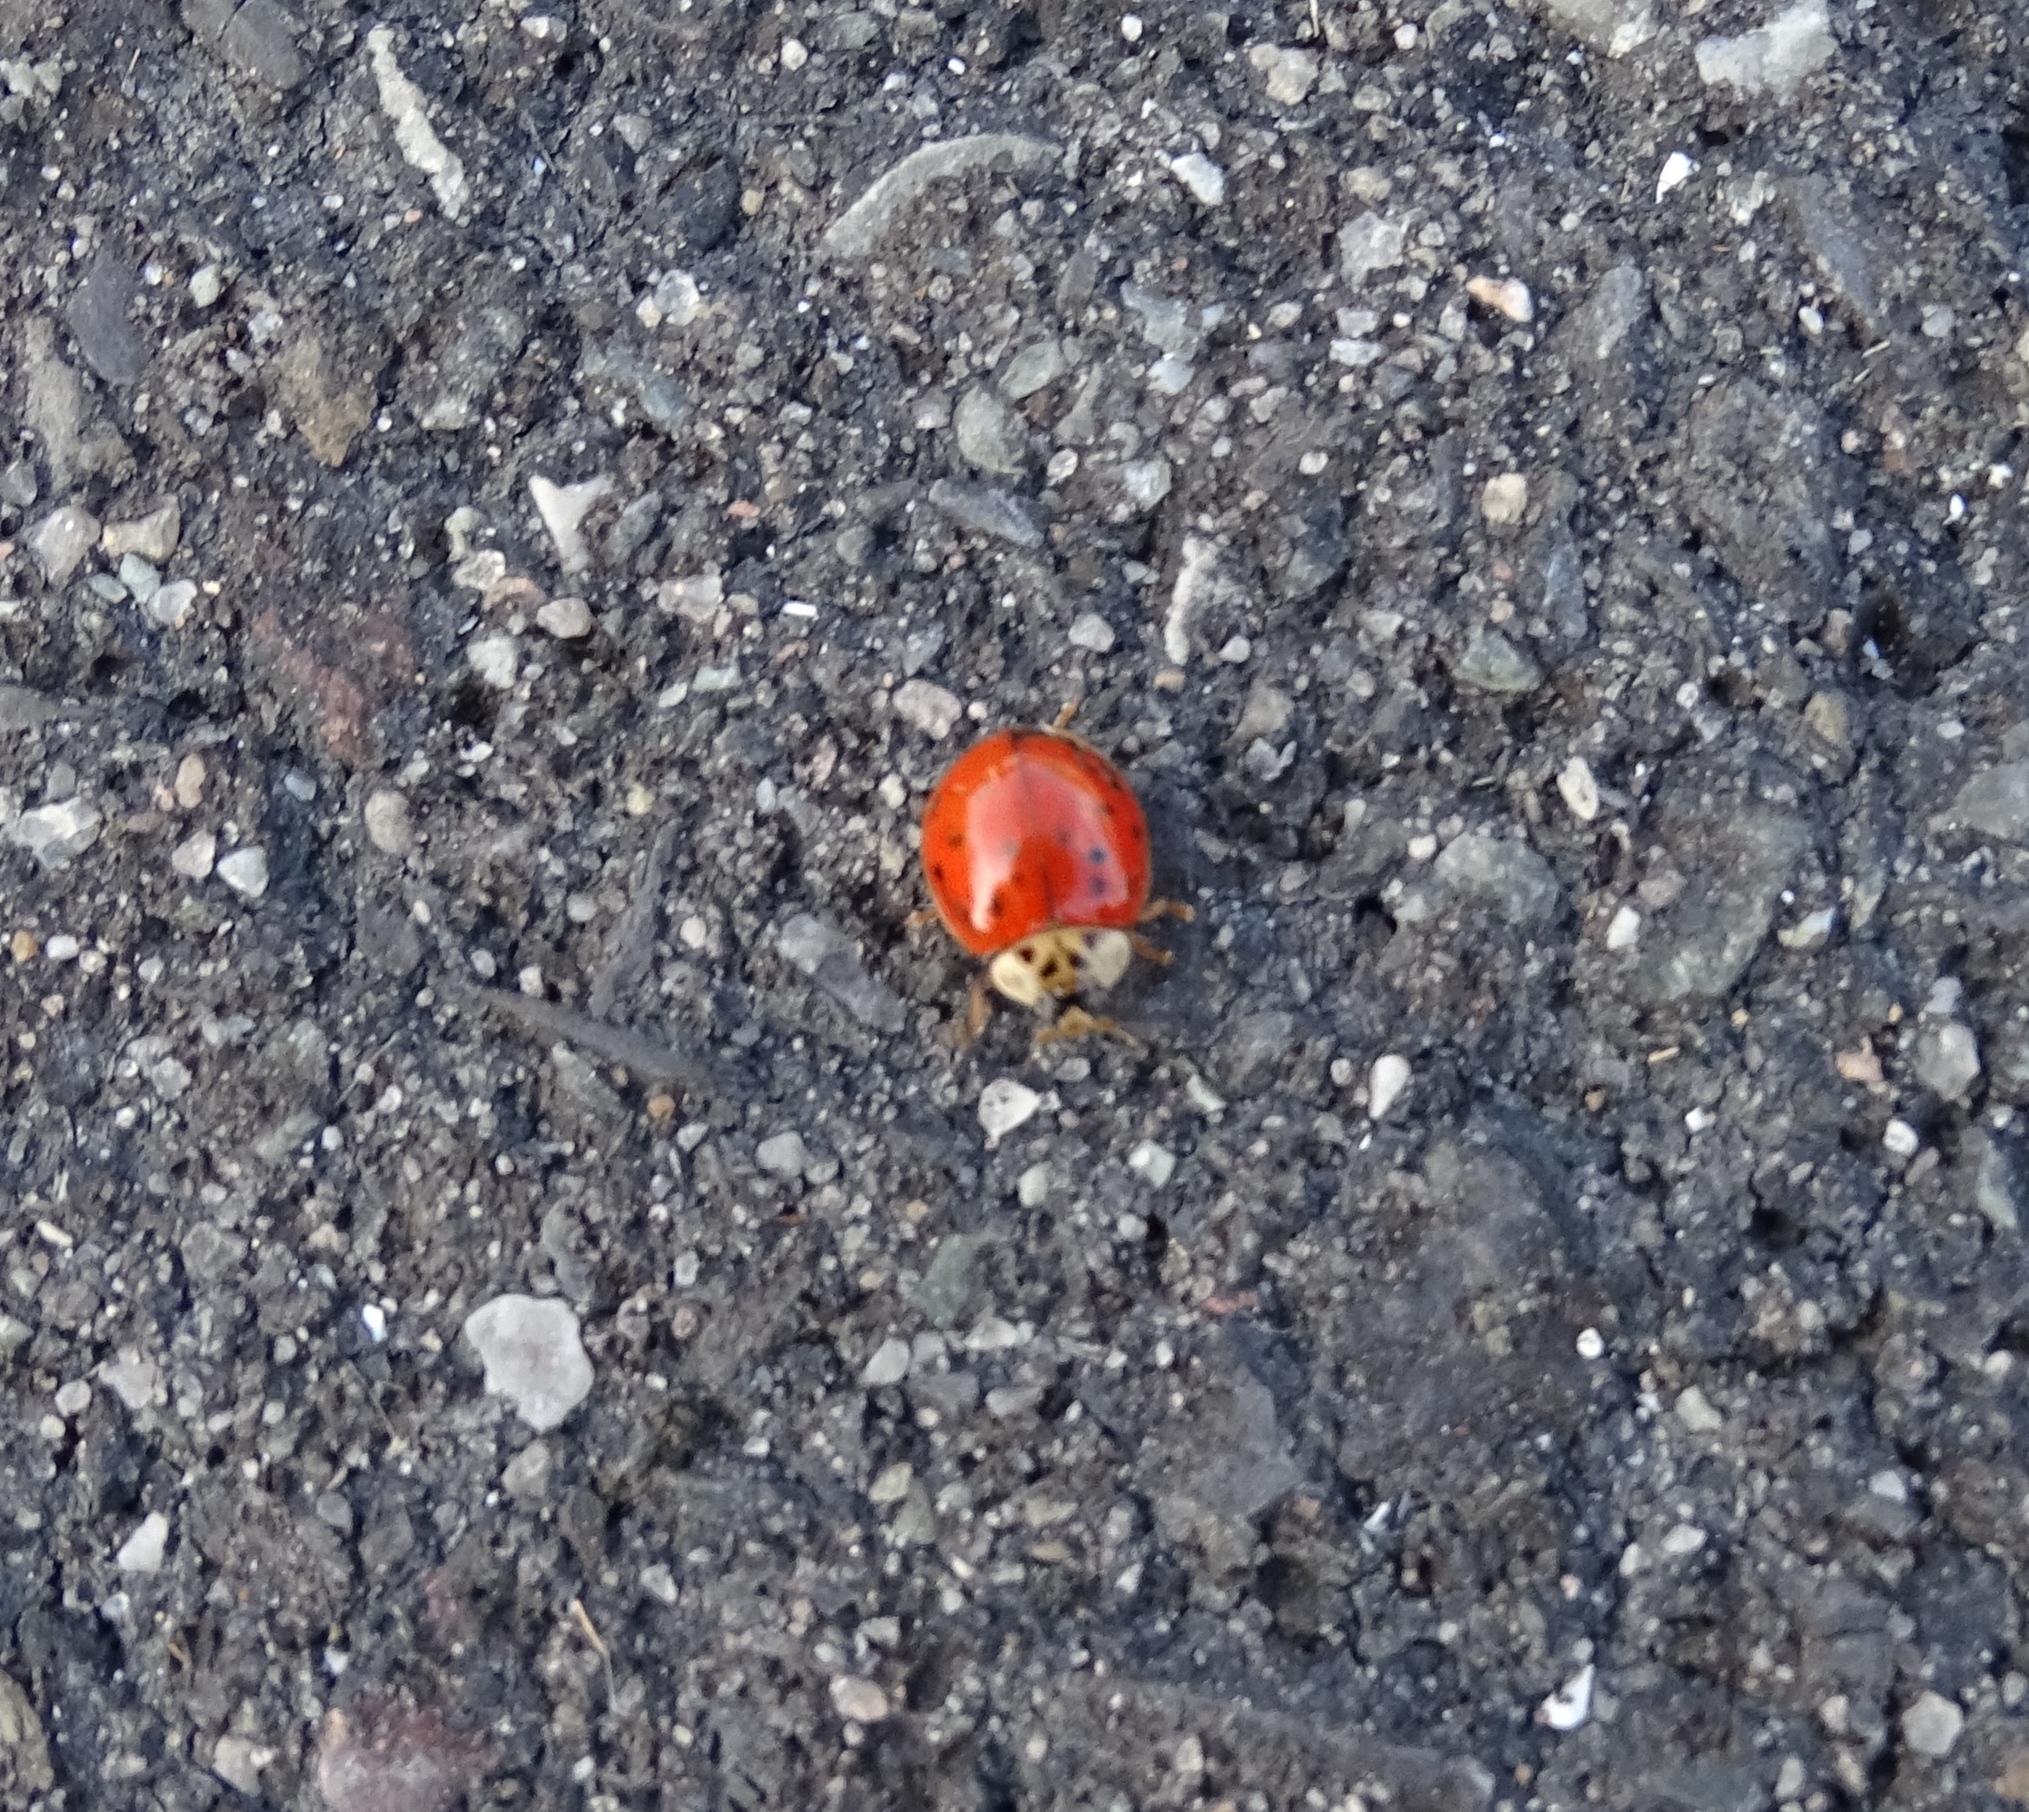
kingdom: Animalia
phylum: Arthropoda
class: Insecta
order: Coleoptera
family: Coccinellidae
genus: Harmonia
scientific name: Harmonia axyridis
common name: Harlequin ladybird
